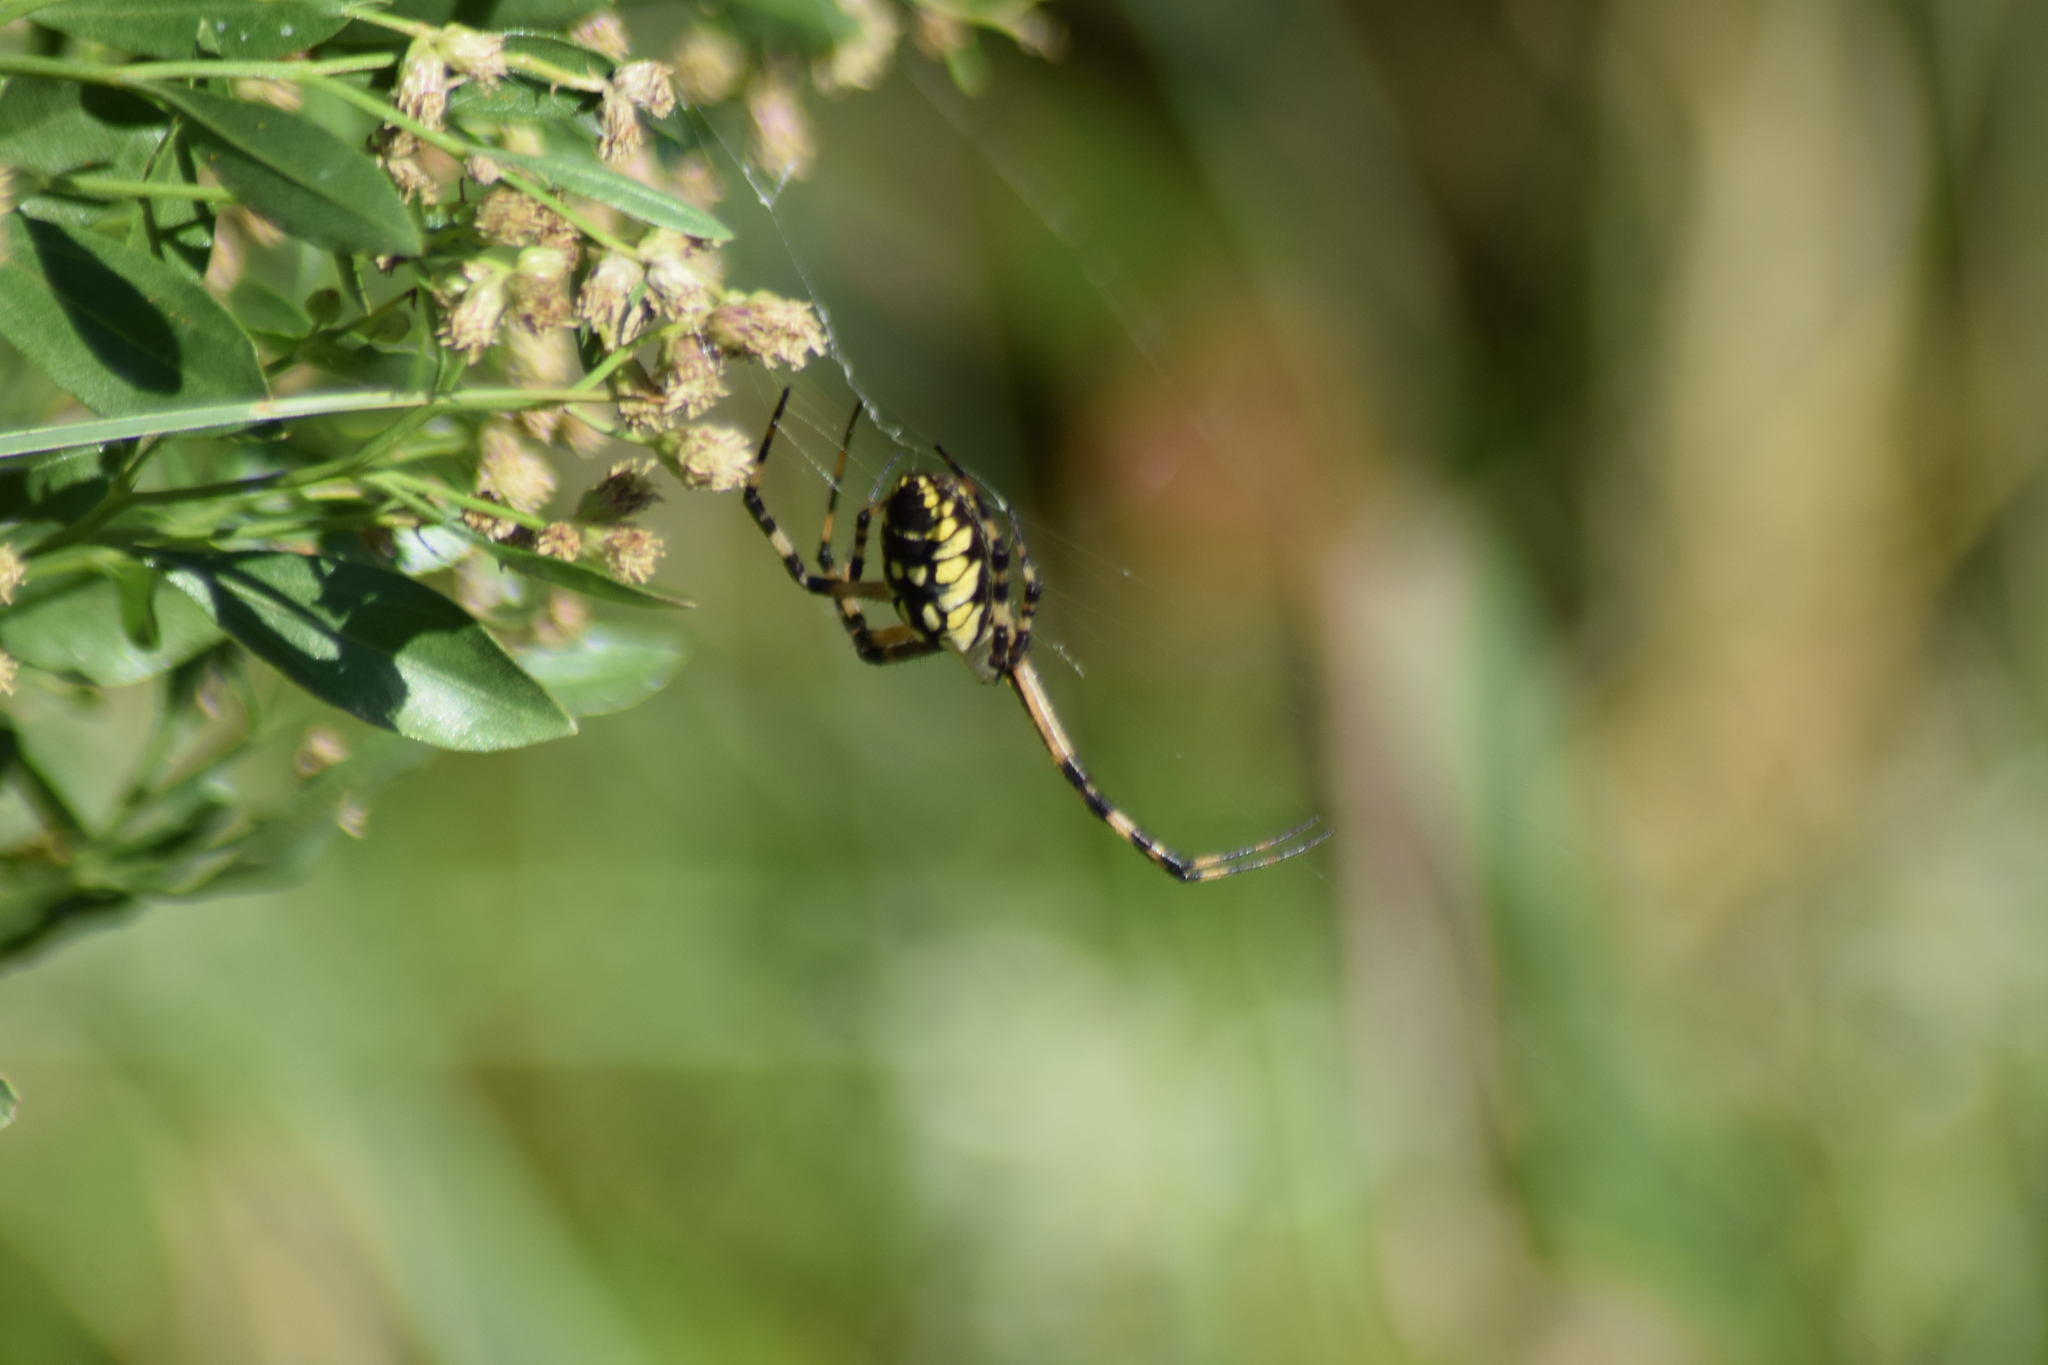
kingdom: Animalia
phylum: Arthropoda
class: Arachnida
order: Araneae
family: Araneidae
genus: Argiope
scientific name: Argiope aurantia
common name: Orb weavers
